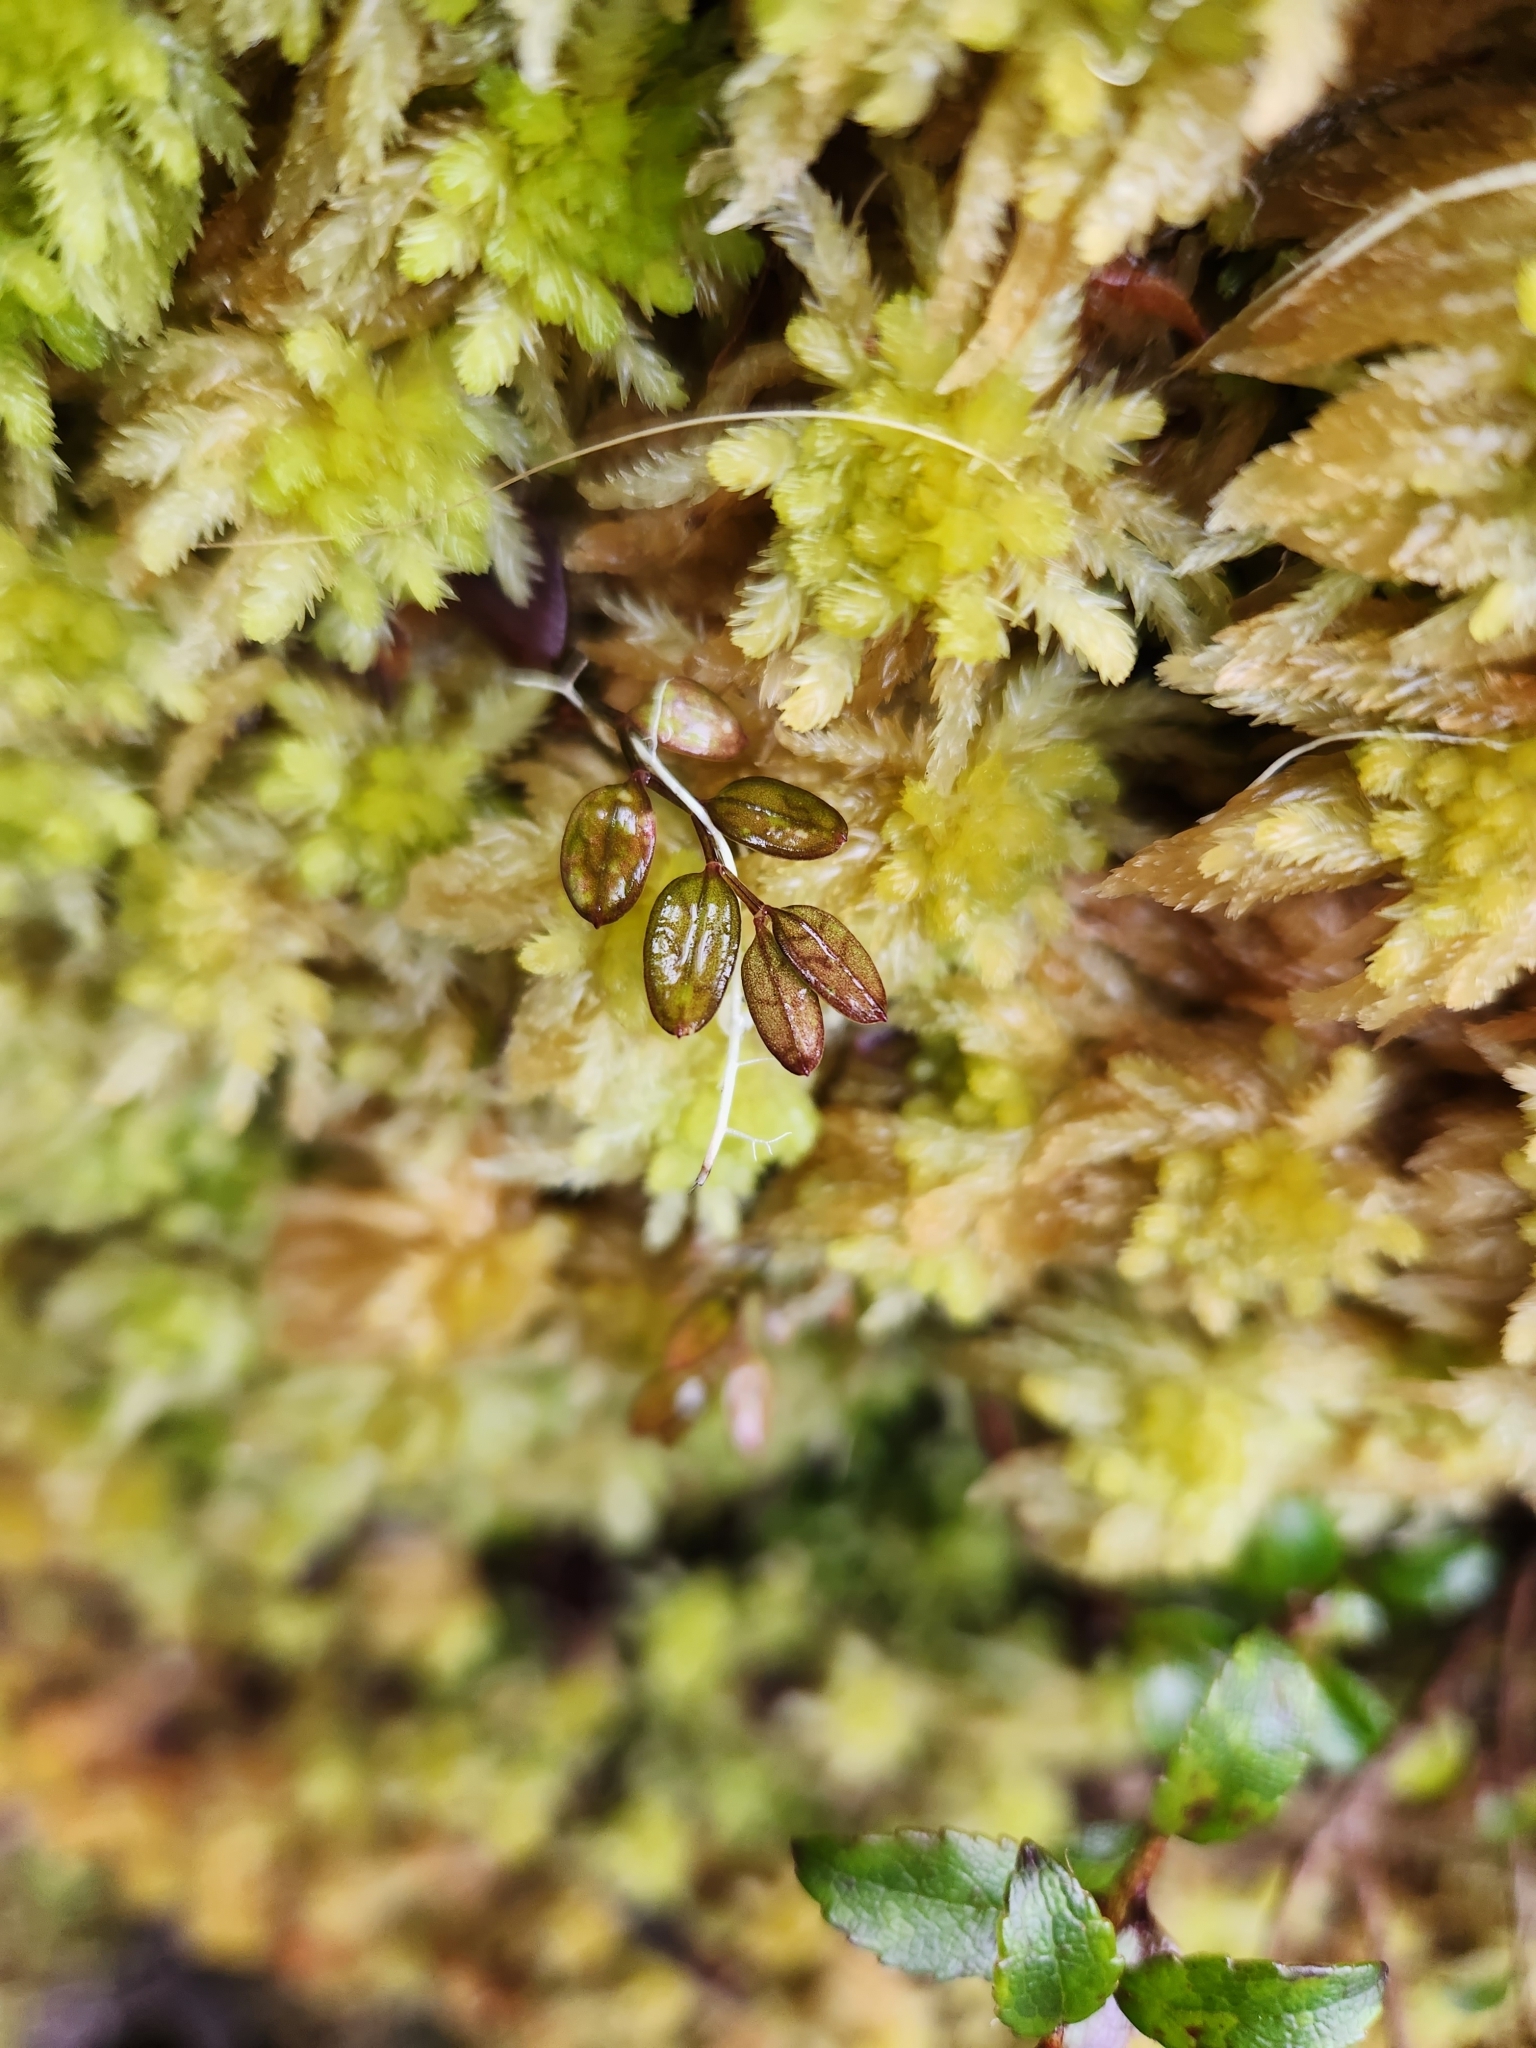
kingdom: Plantae
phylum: Tracheophyta
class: Liliopsida
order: Liliales
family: Alstroemeriaceae
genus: Luzuriaga
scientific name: Luzuriaga parviflora
